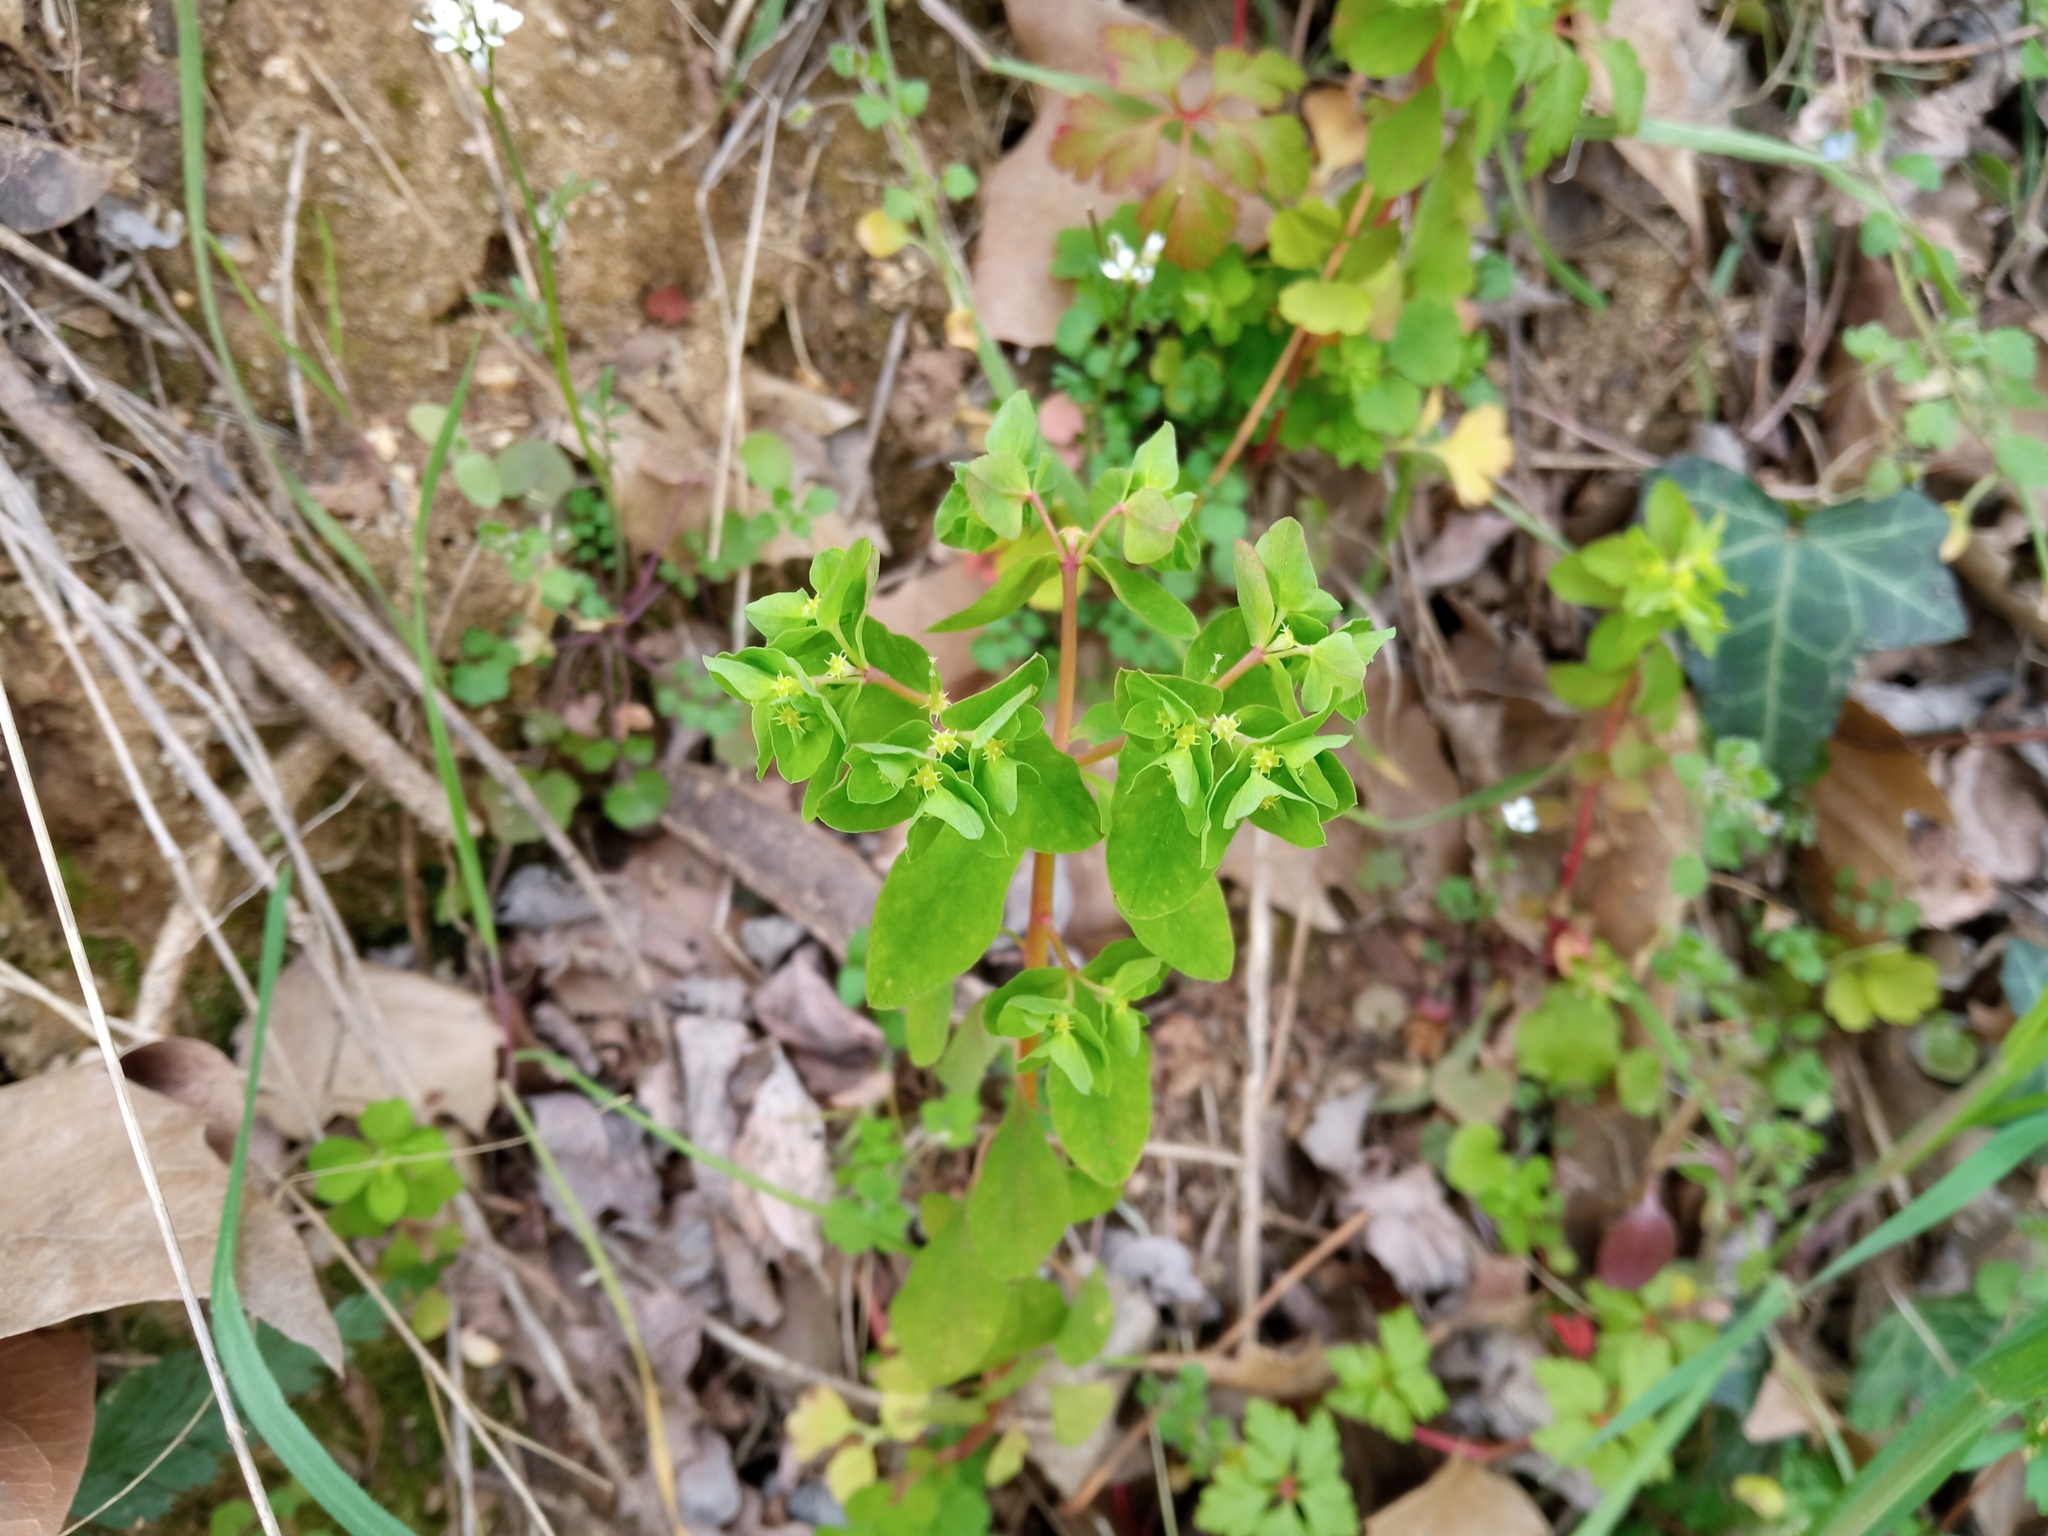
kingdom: Plantae
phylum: Tracheophyta
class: Magnoliopsida
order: Malpighiales
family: Euphorbiaceae
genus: Euphorbia
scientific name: Euphorbia peplus
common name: Petty spurge
